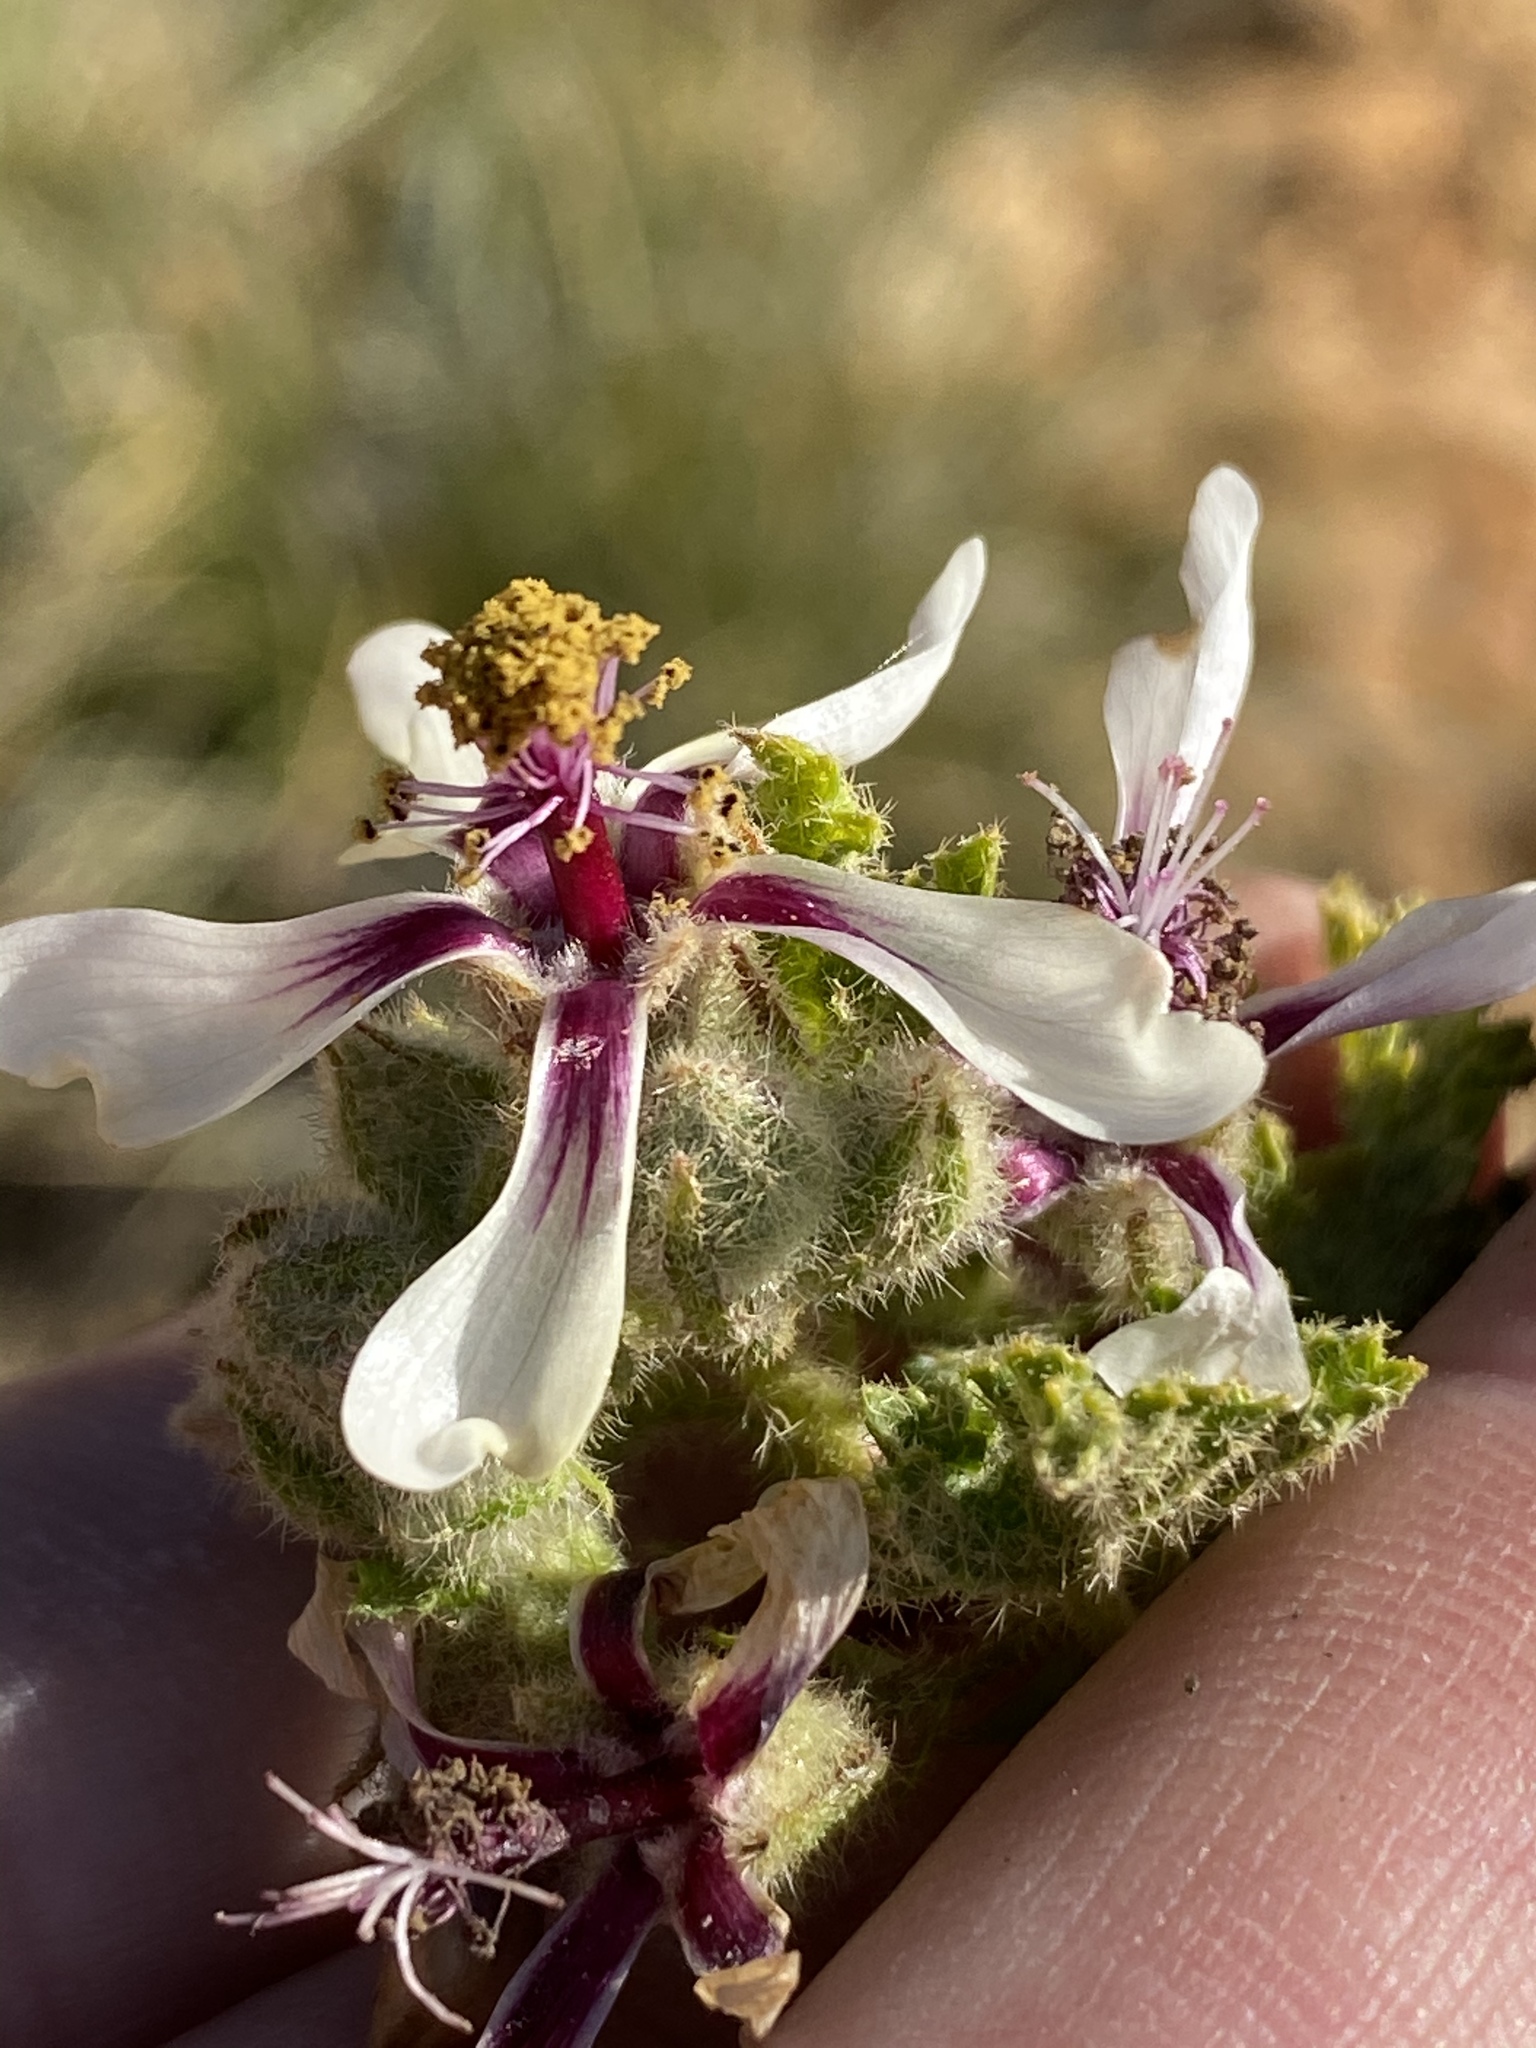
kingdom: Plantae
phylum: Tracheophyta
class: Magnoliopsida
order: Malvales
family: Malvaceae
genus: Anisodontea
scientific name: Anisodontea reflexa
